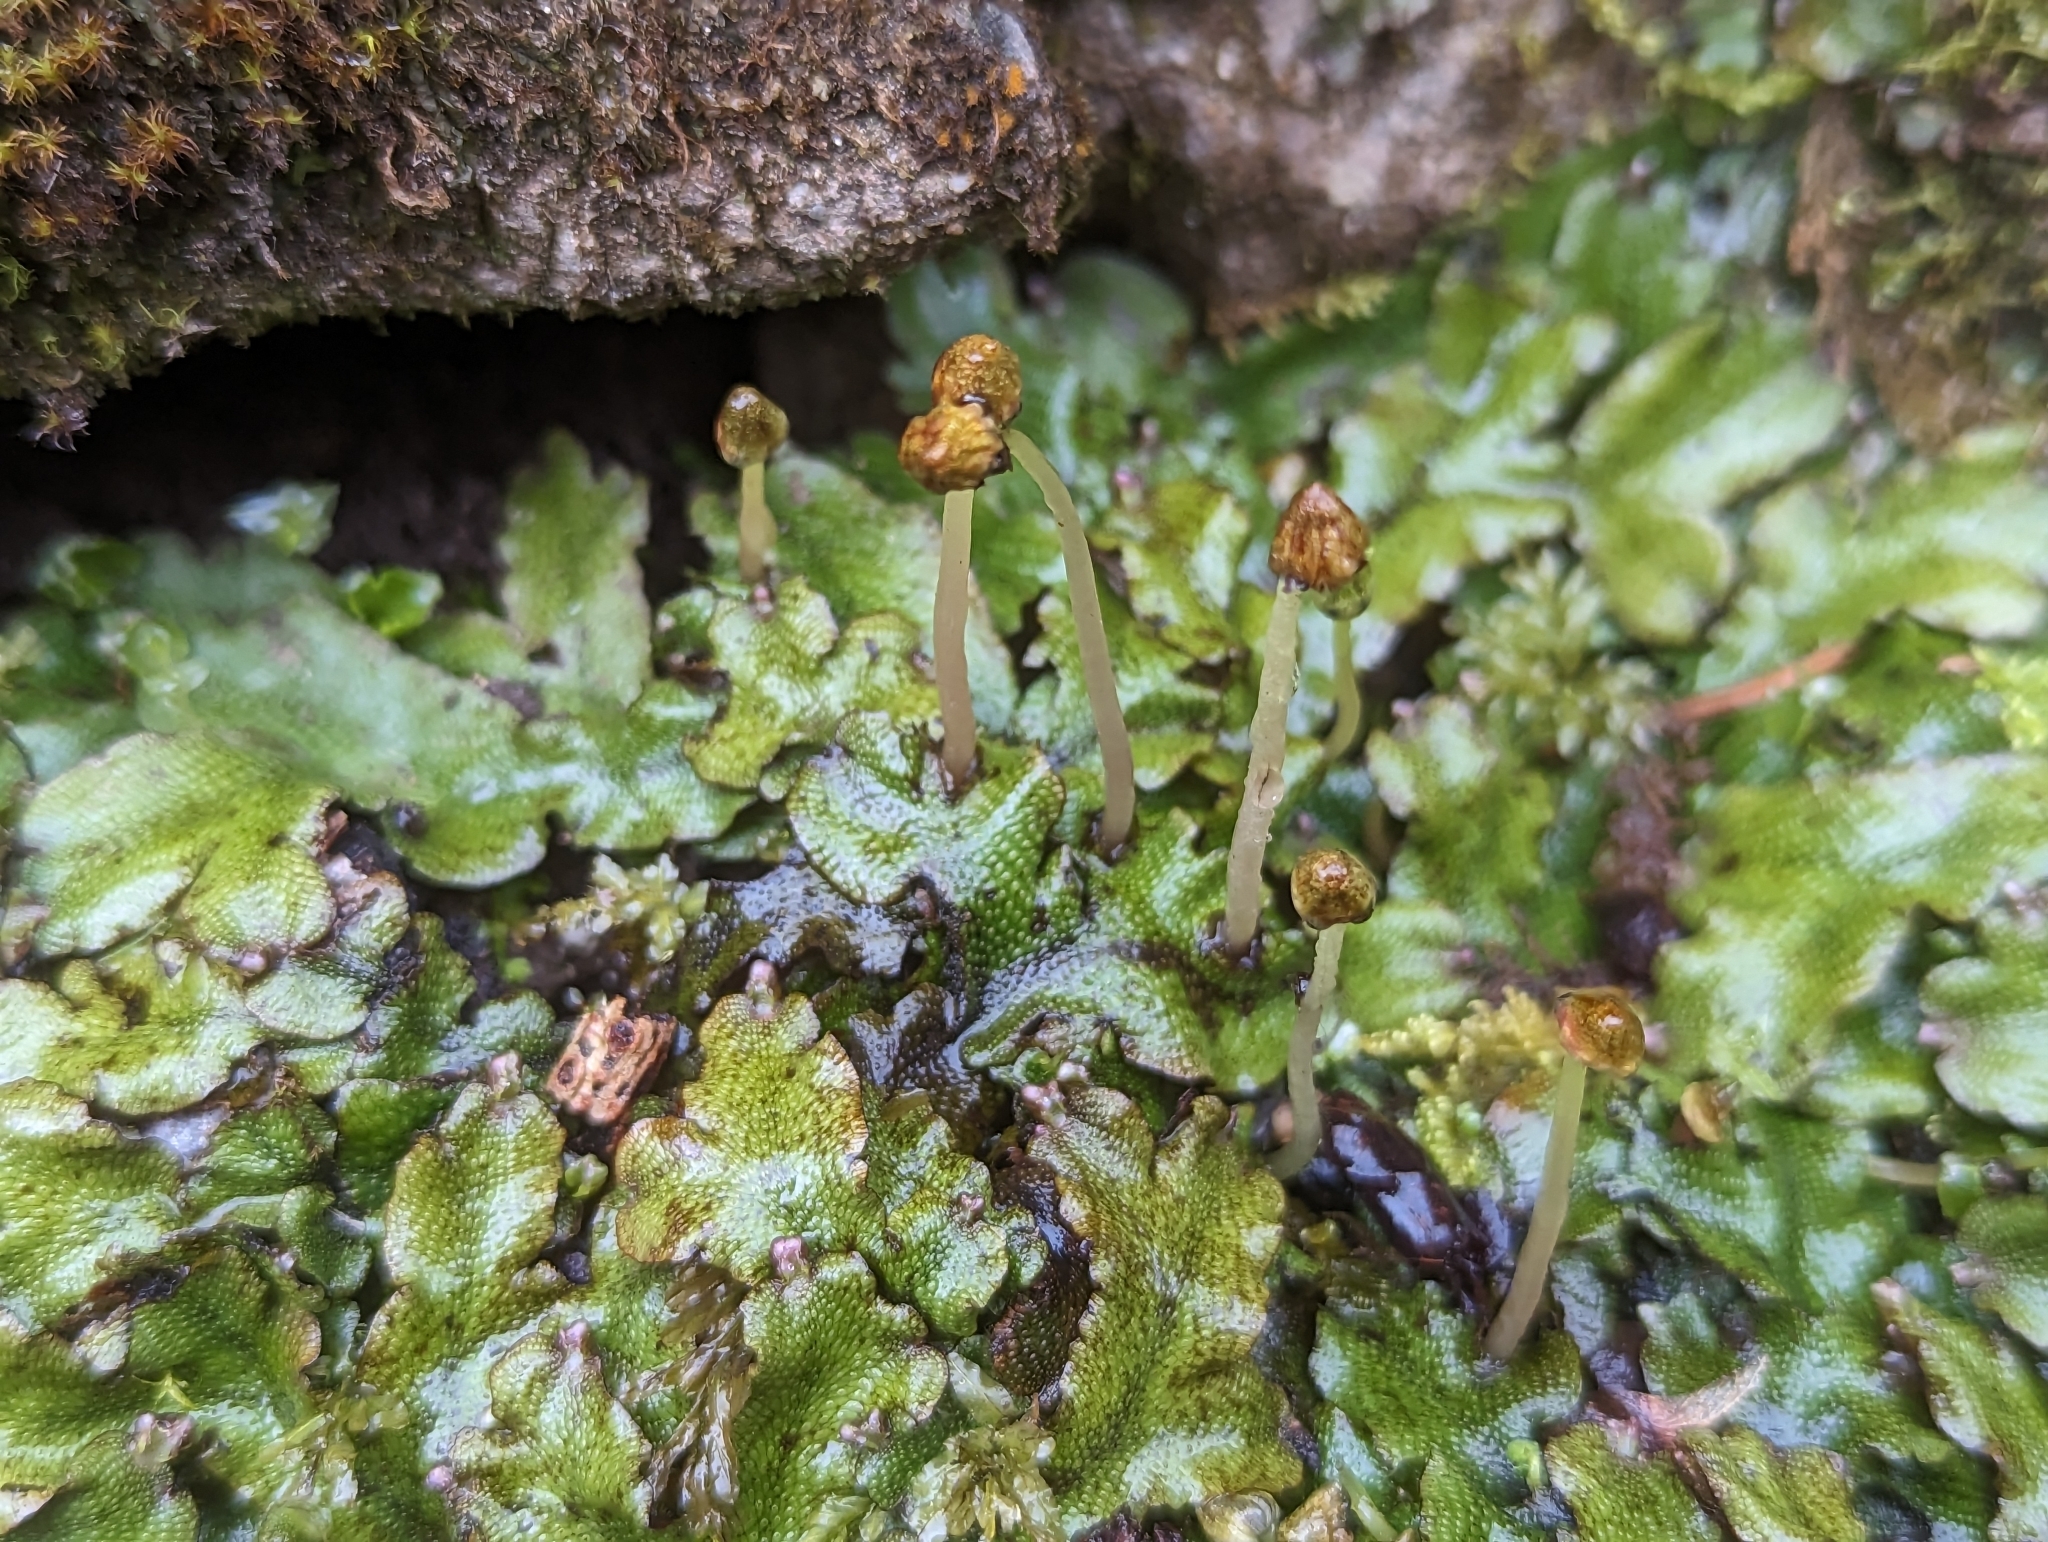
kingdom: Plantae
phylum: Marchantiophyta
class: Marchantiopsida
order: Marchantiales
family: Conocephalaceae
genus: Conocephalum
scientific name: Conocephalum conicum
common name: Great scented liverwort
